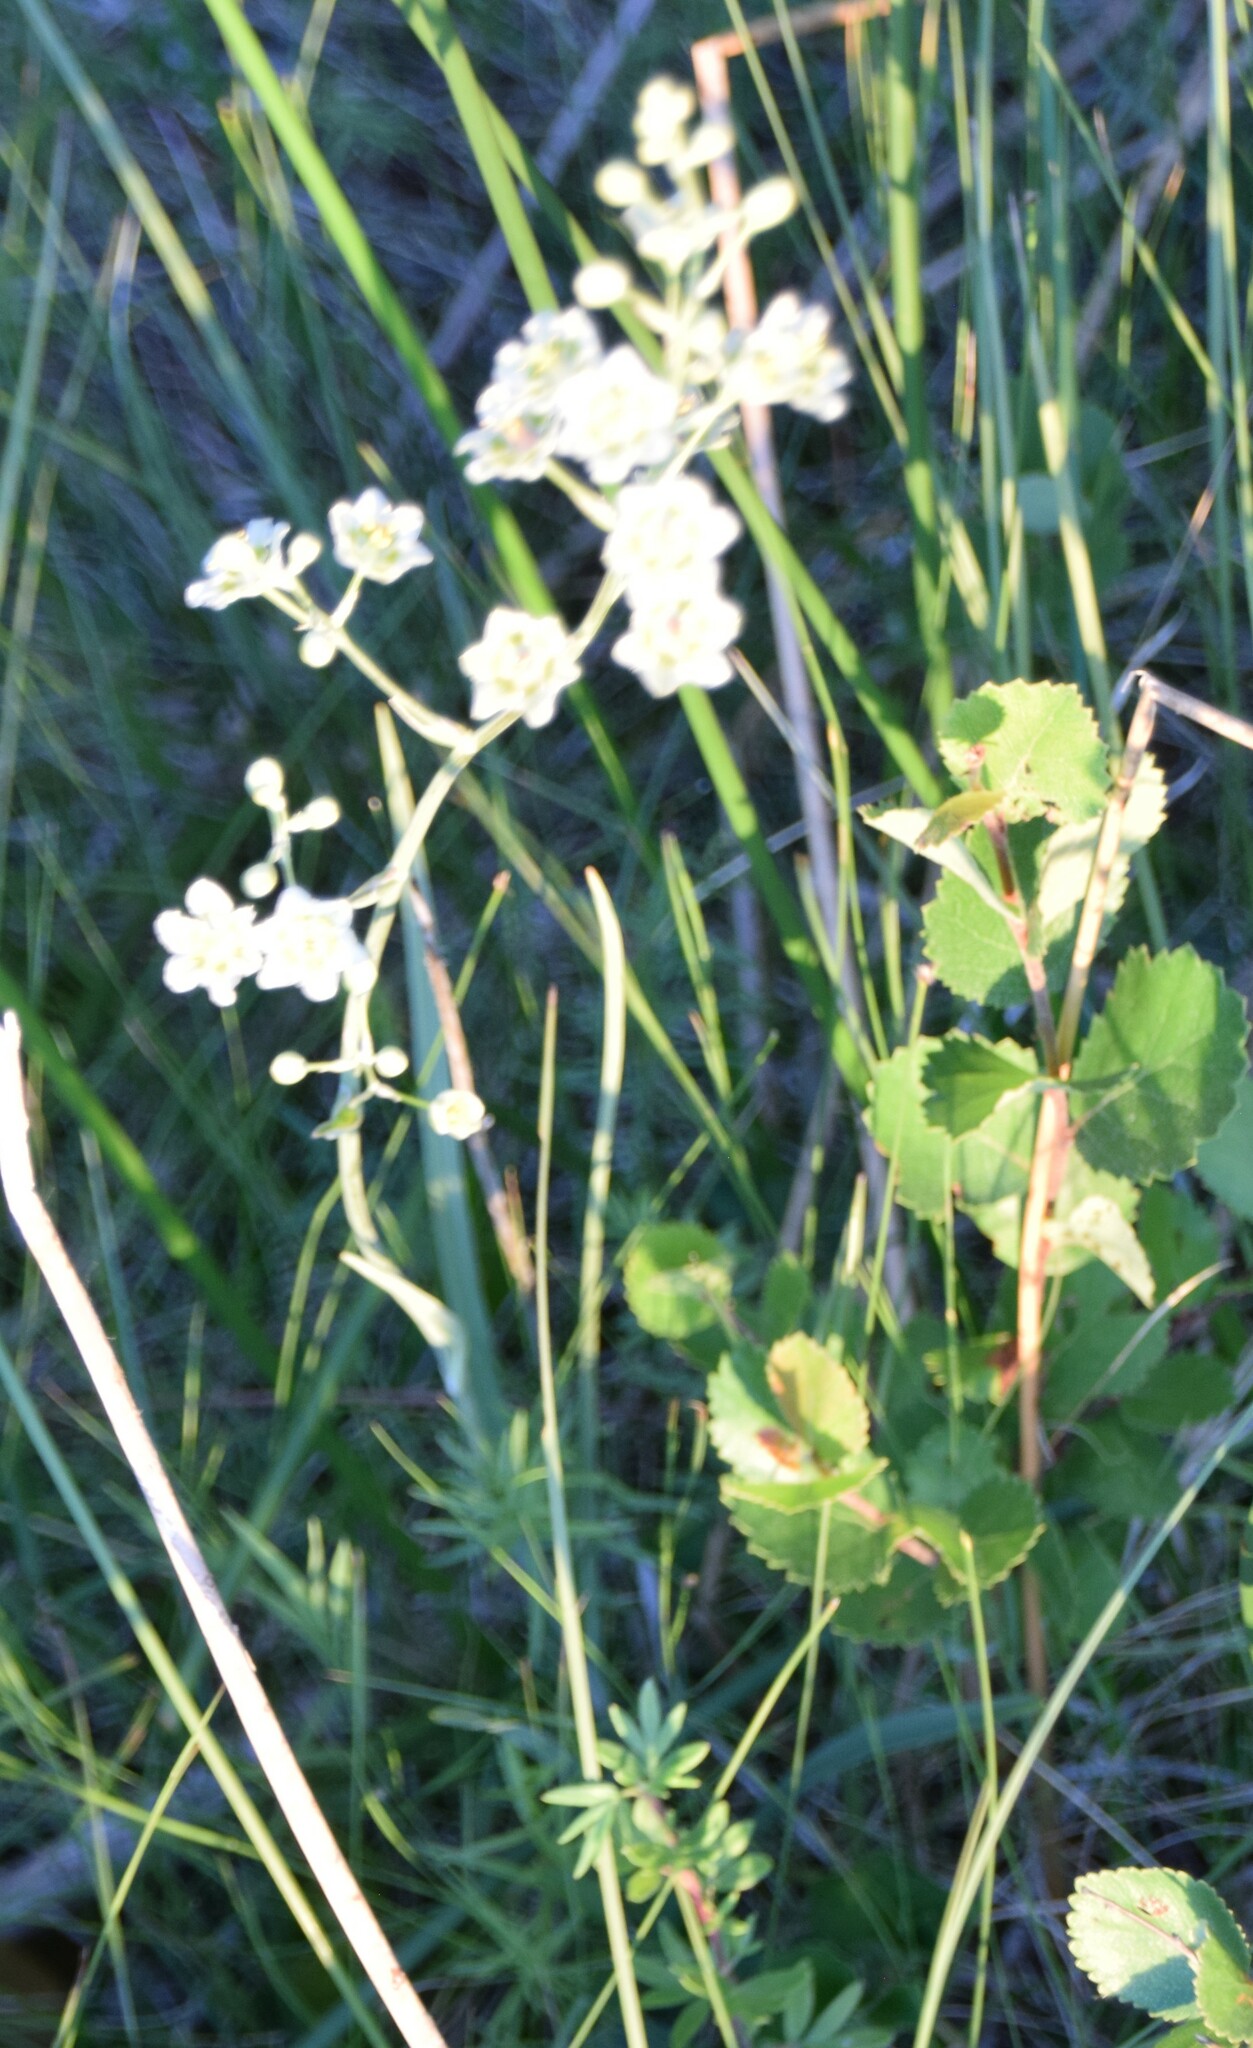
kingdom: Plantae
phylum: Tracheophyta
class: Liliopsida
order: Liliales
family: Melanthiaceae
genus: Anticlea
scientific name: Anticlea elegans
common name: Mountain death camas
